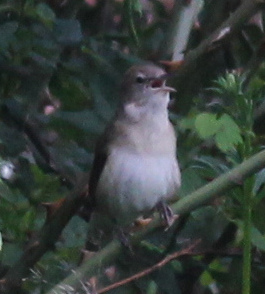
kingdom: Animalia
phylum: Chordata
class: Aves
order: Passeriformes
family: Sylviidae
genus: Sylvia
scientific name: Sylvia borin
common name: Garden warbler
